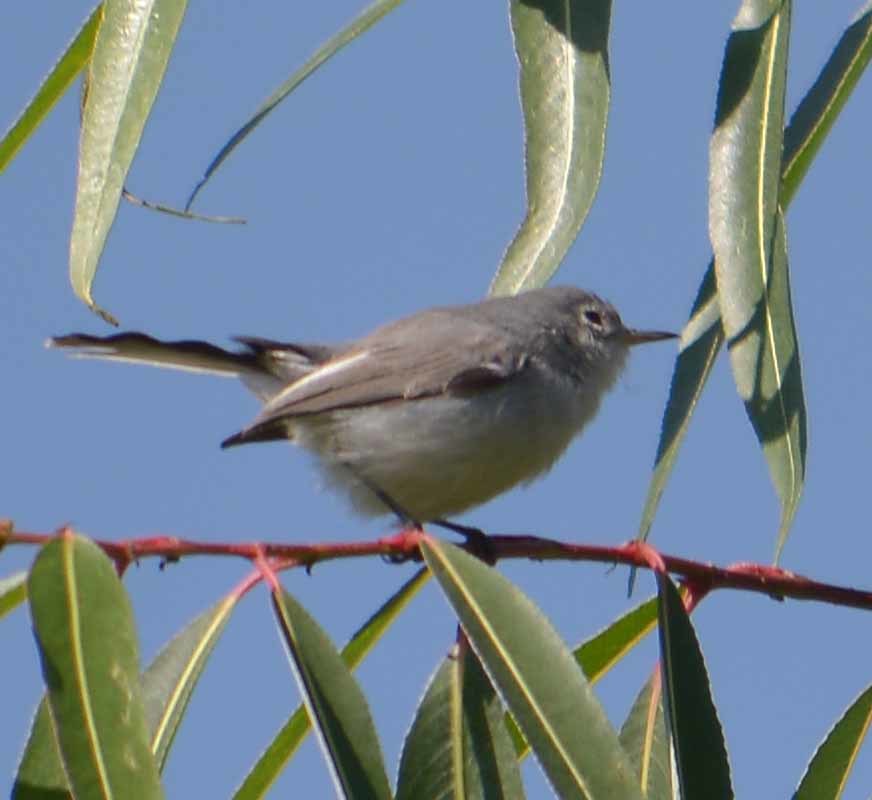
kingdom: Animalia
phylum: Chordata
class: Aves
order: Passeriformes
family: Polioptilidae
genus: Polioptila
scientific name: Polioptila caerulea
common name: Blue-gray gnatcatcher
